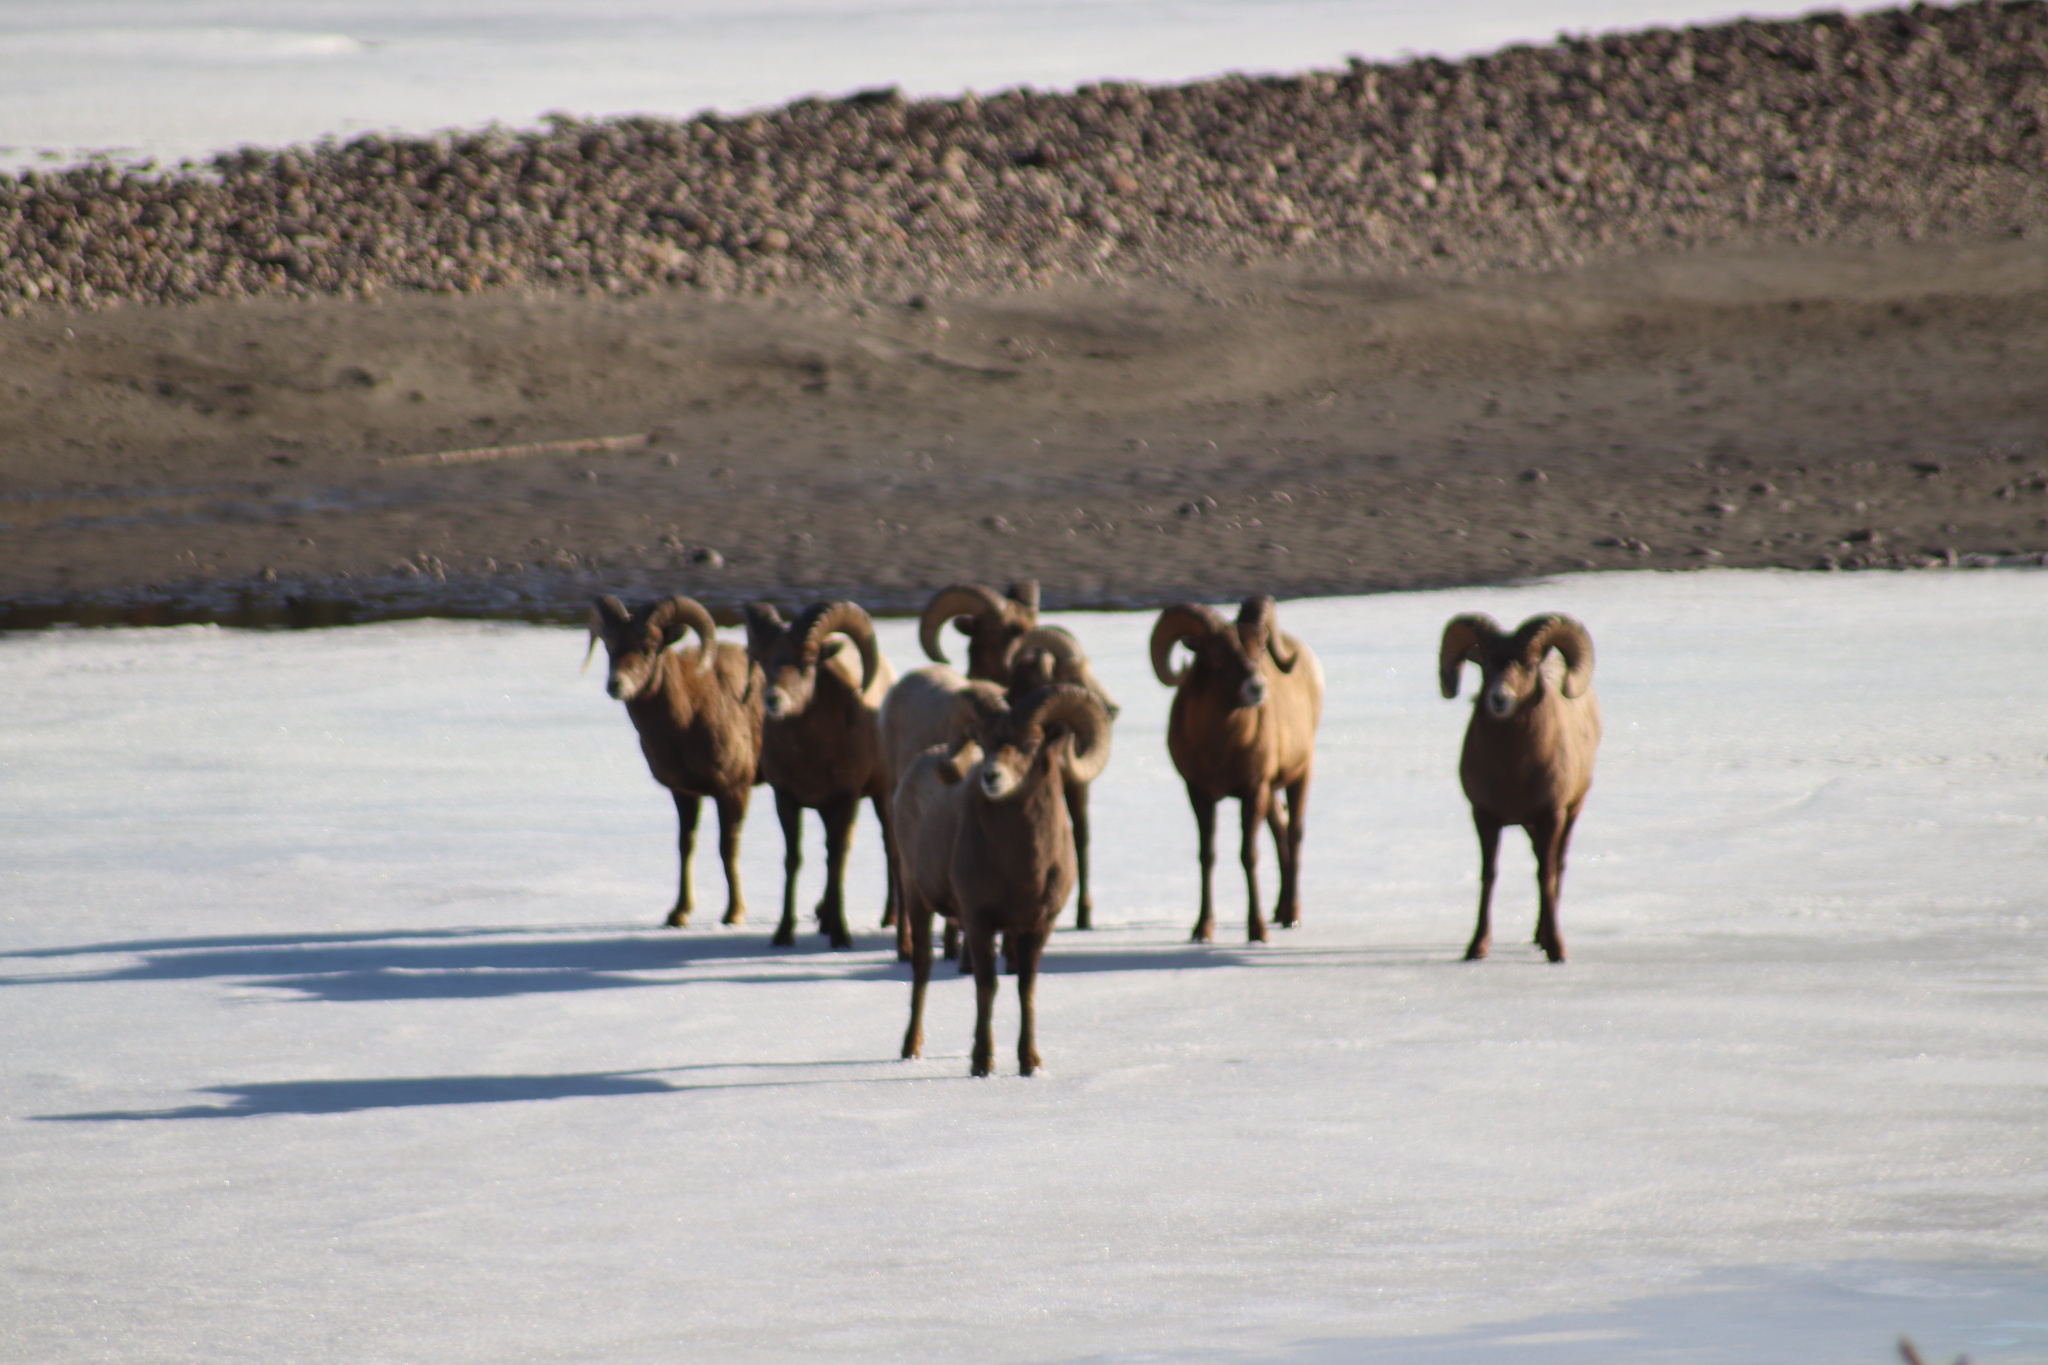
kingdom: Animalia
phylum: Chordata
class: Mammalia
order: Artiodactyla
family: Bovidae
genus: Ovis
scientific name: Ovis canadensis
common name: Bighorn sheep
